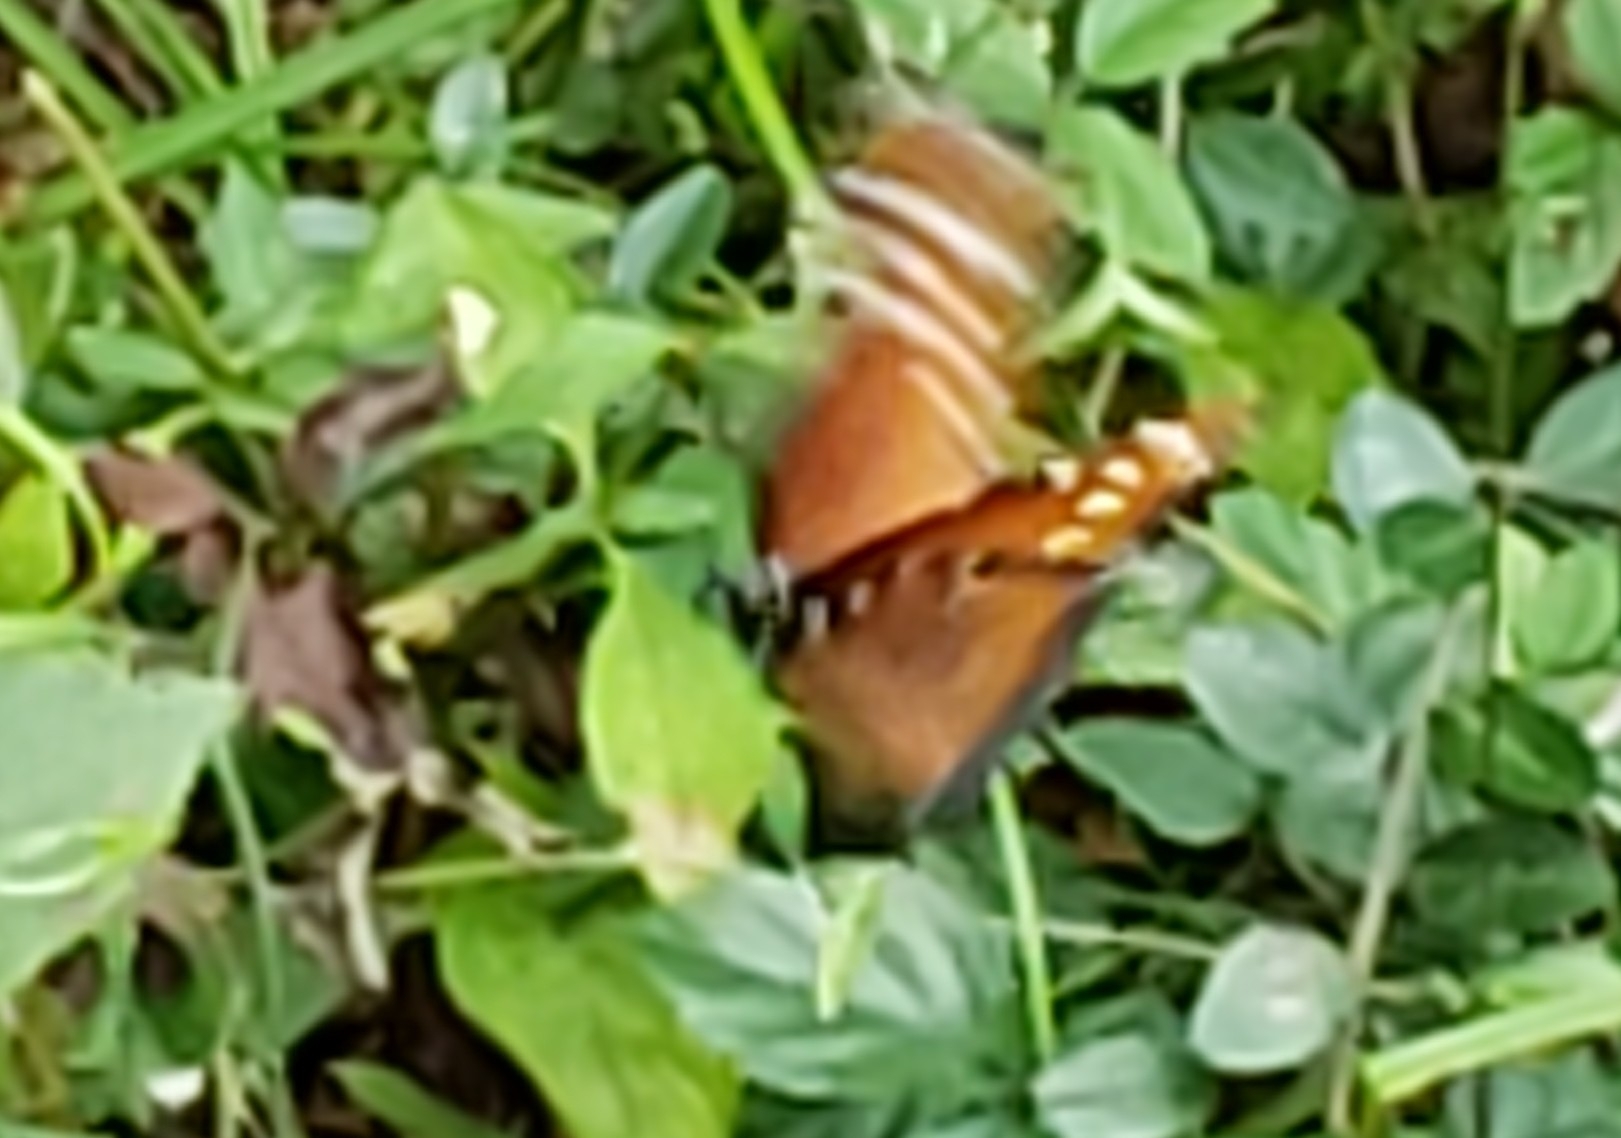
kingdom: Animalia
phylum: Arthropoda
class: Insecta
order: Lepidoptera
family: Nymphalidae
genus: Danaus
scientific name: Danaus gilippus
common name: Queen
